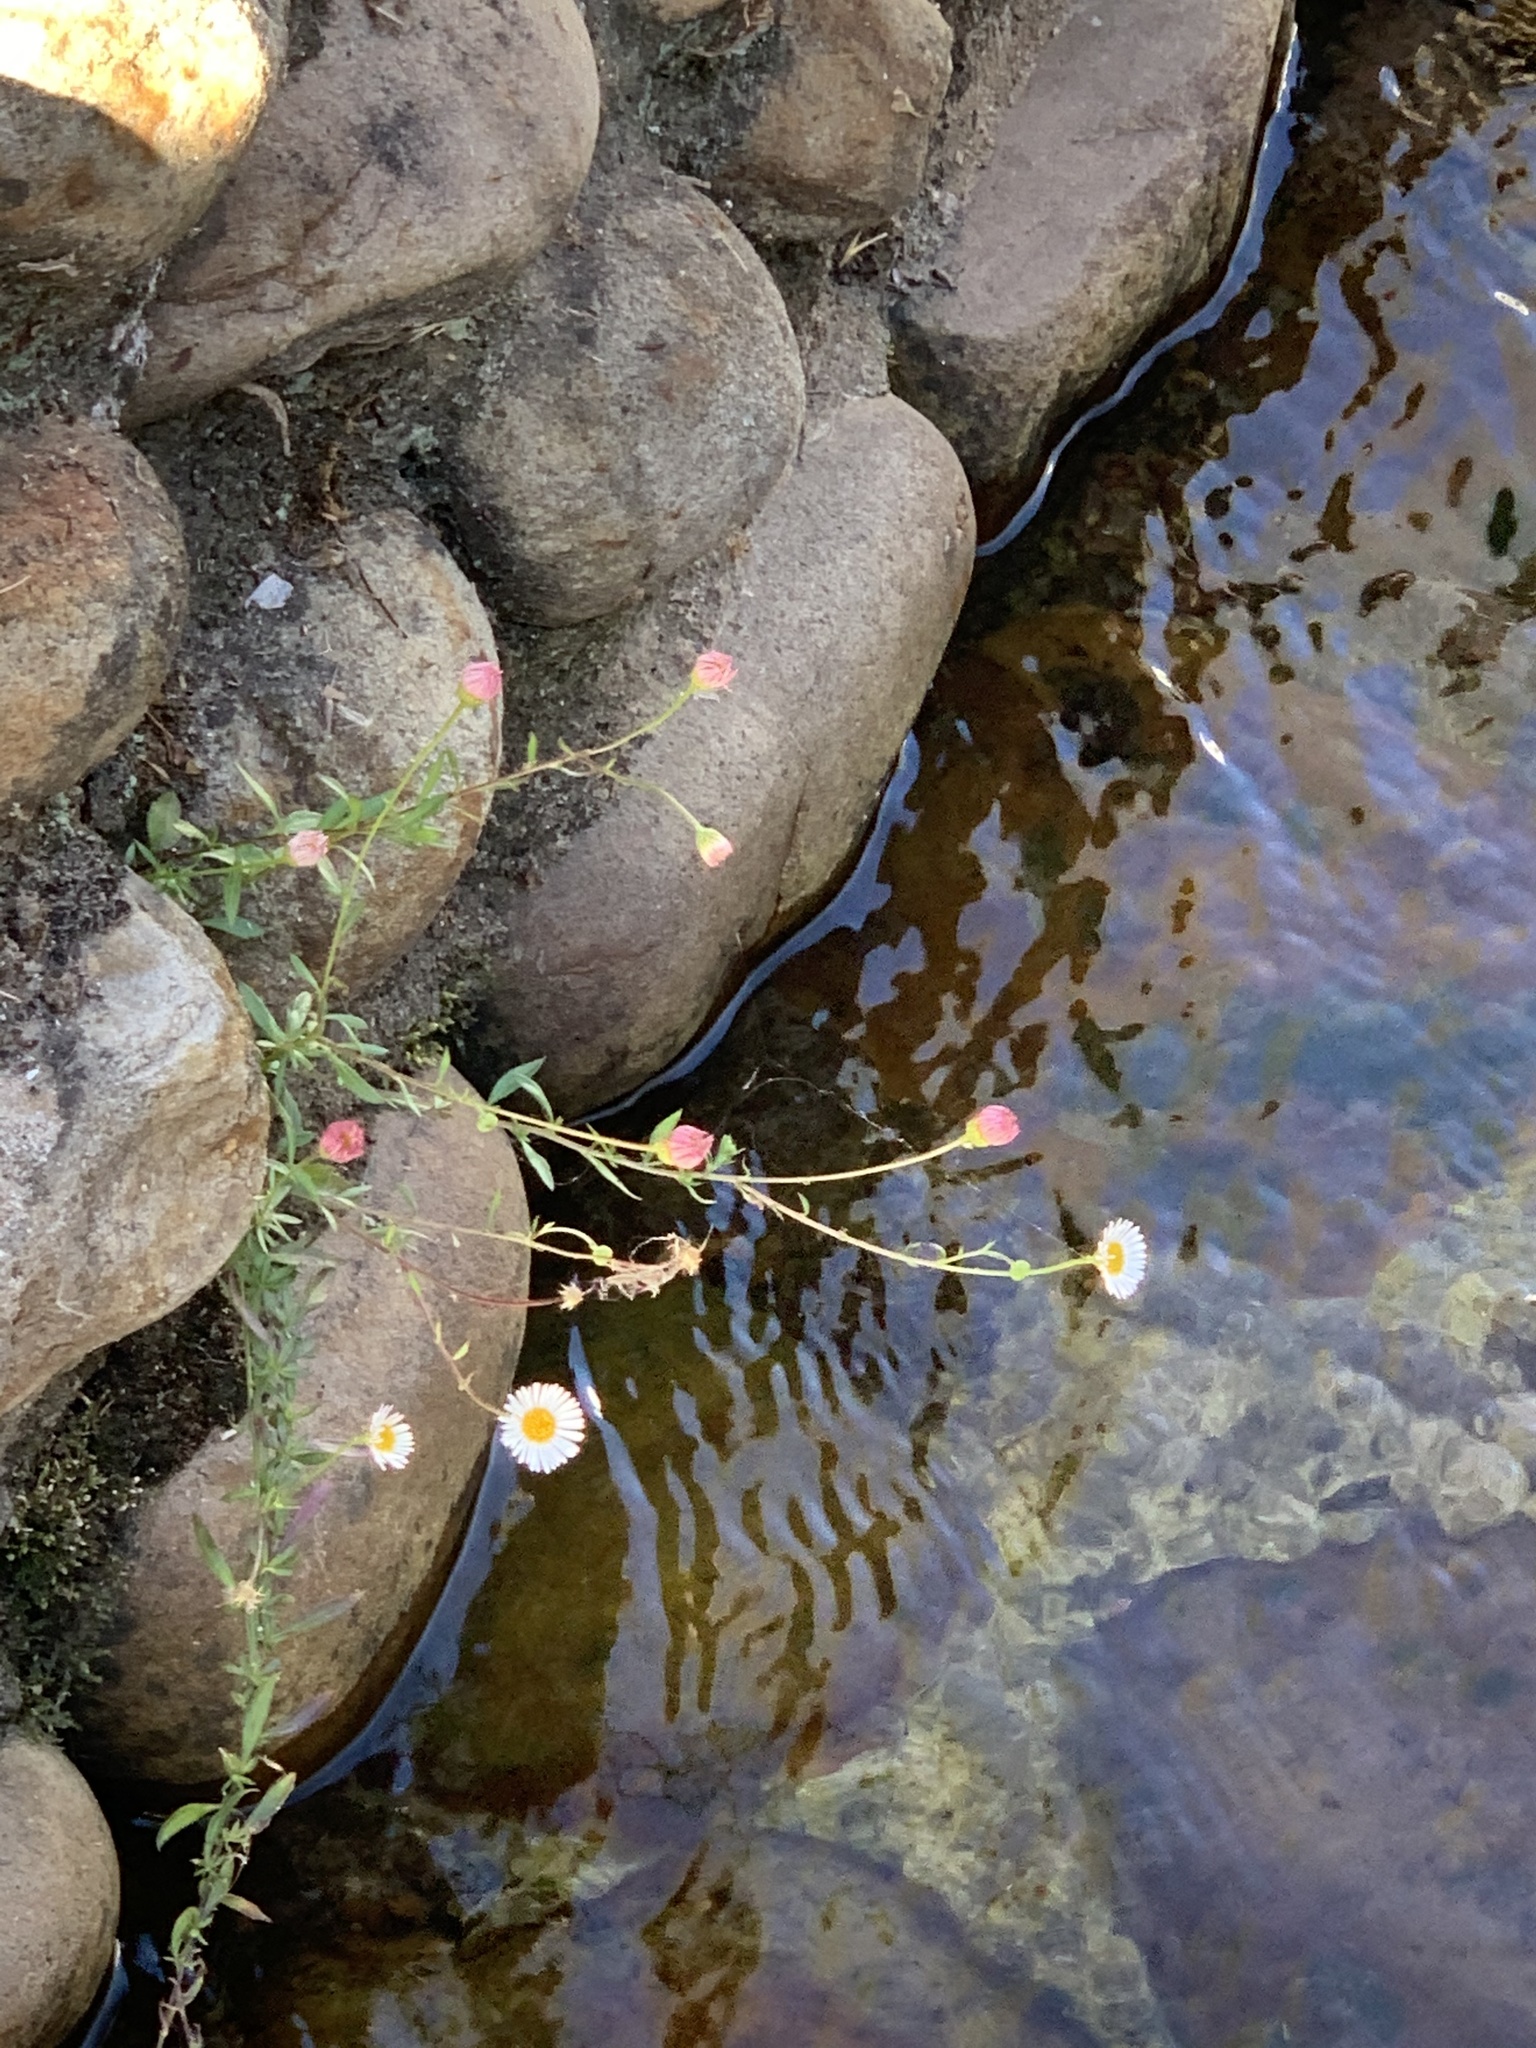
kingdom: Plantae
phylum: Tracheophyta
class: Magnoliopsida
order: Asterales
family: Asteraceae
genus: Erigeron
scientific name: Erigeron karvinskianus
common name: Mexican fleabane
